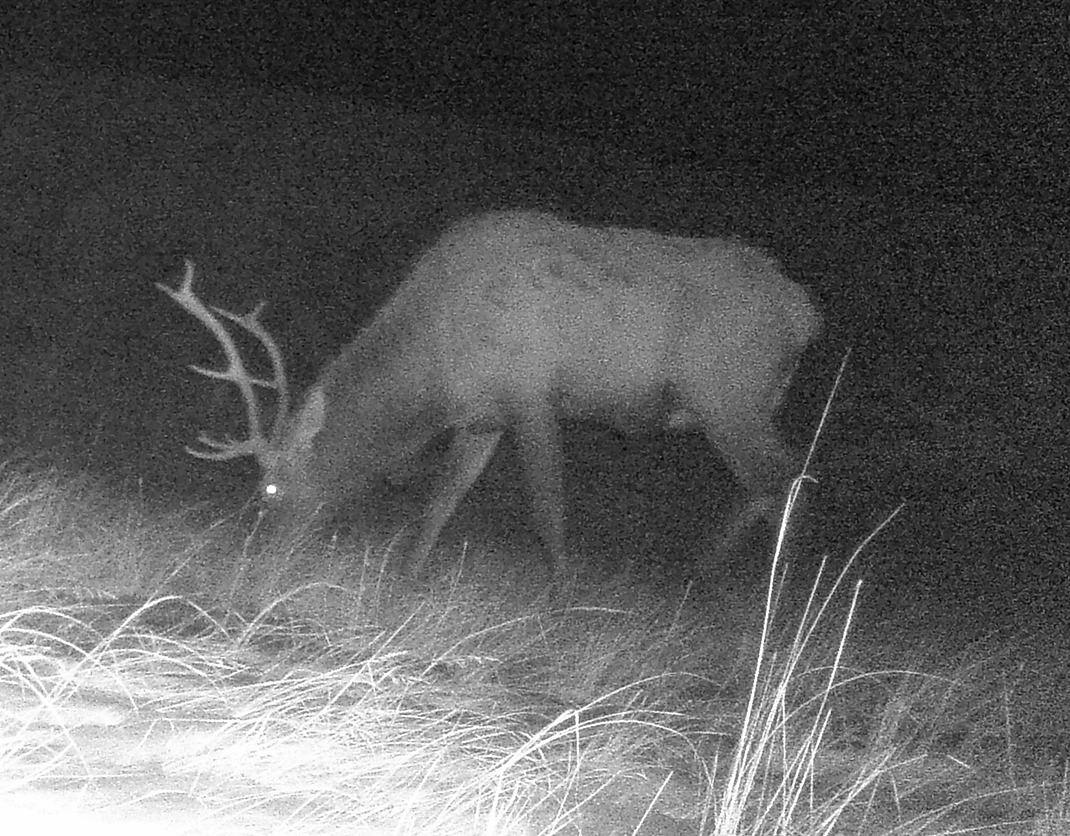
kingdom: Animalia
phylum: Chordata
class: Mammalia
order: Artiodactyla
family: Cervidae
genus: Cervus
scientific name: Cervus elaphus
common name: Red deer
